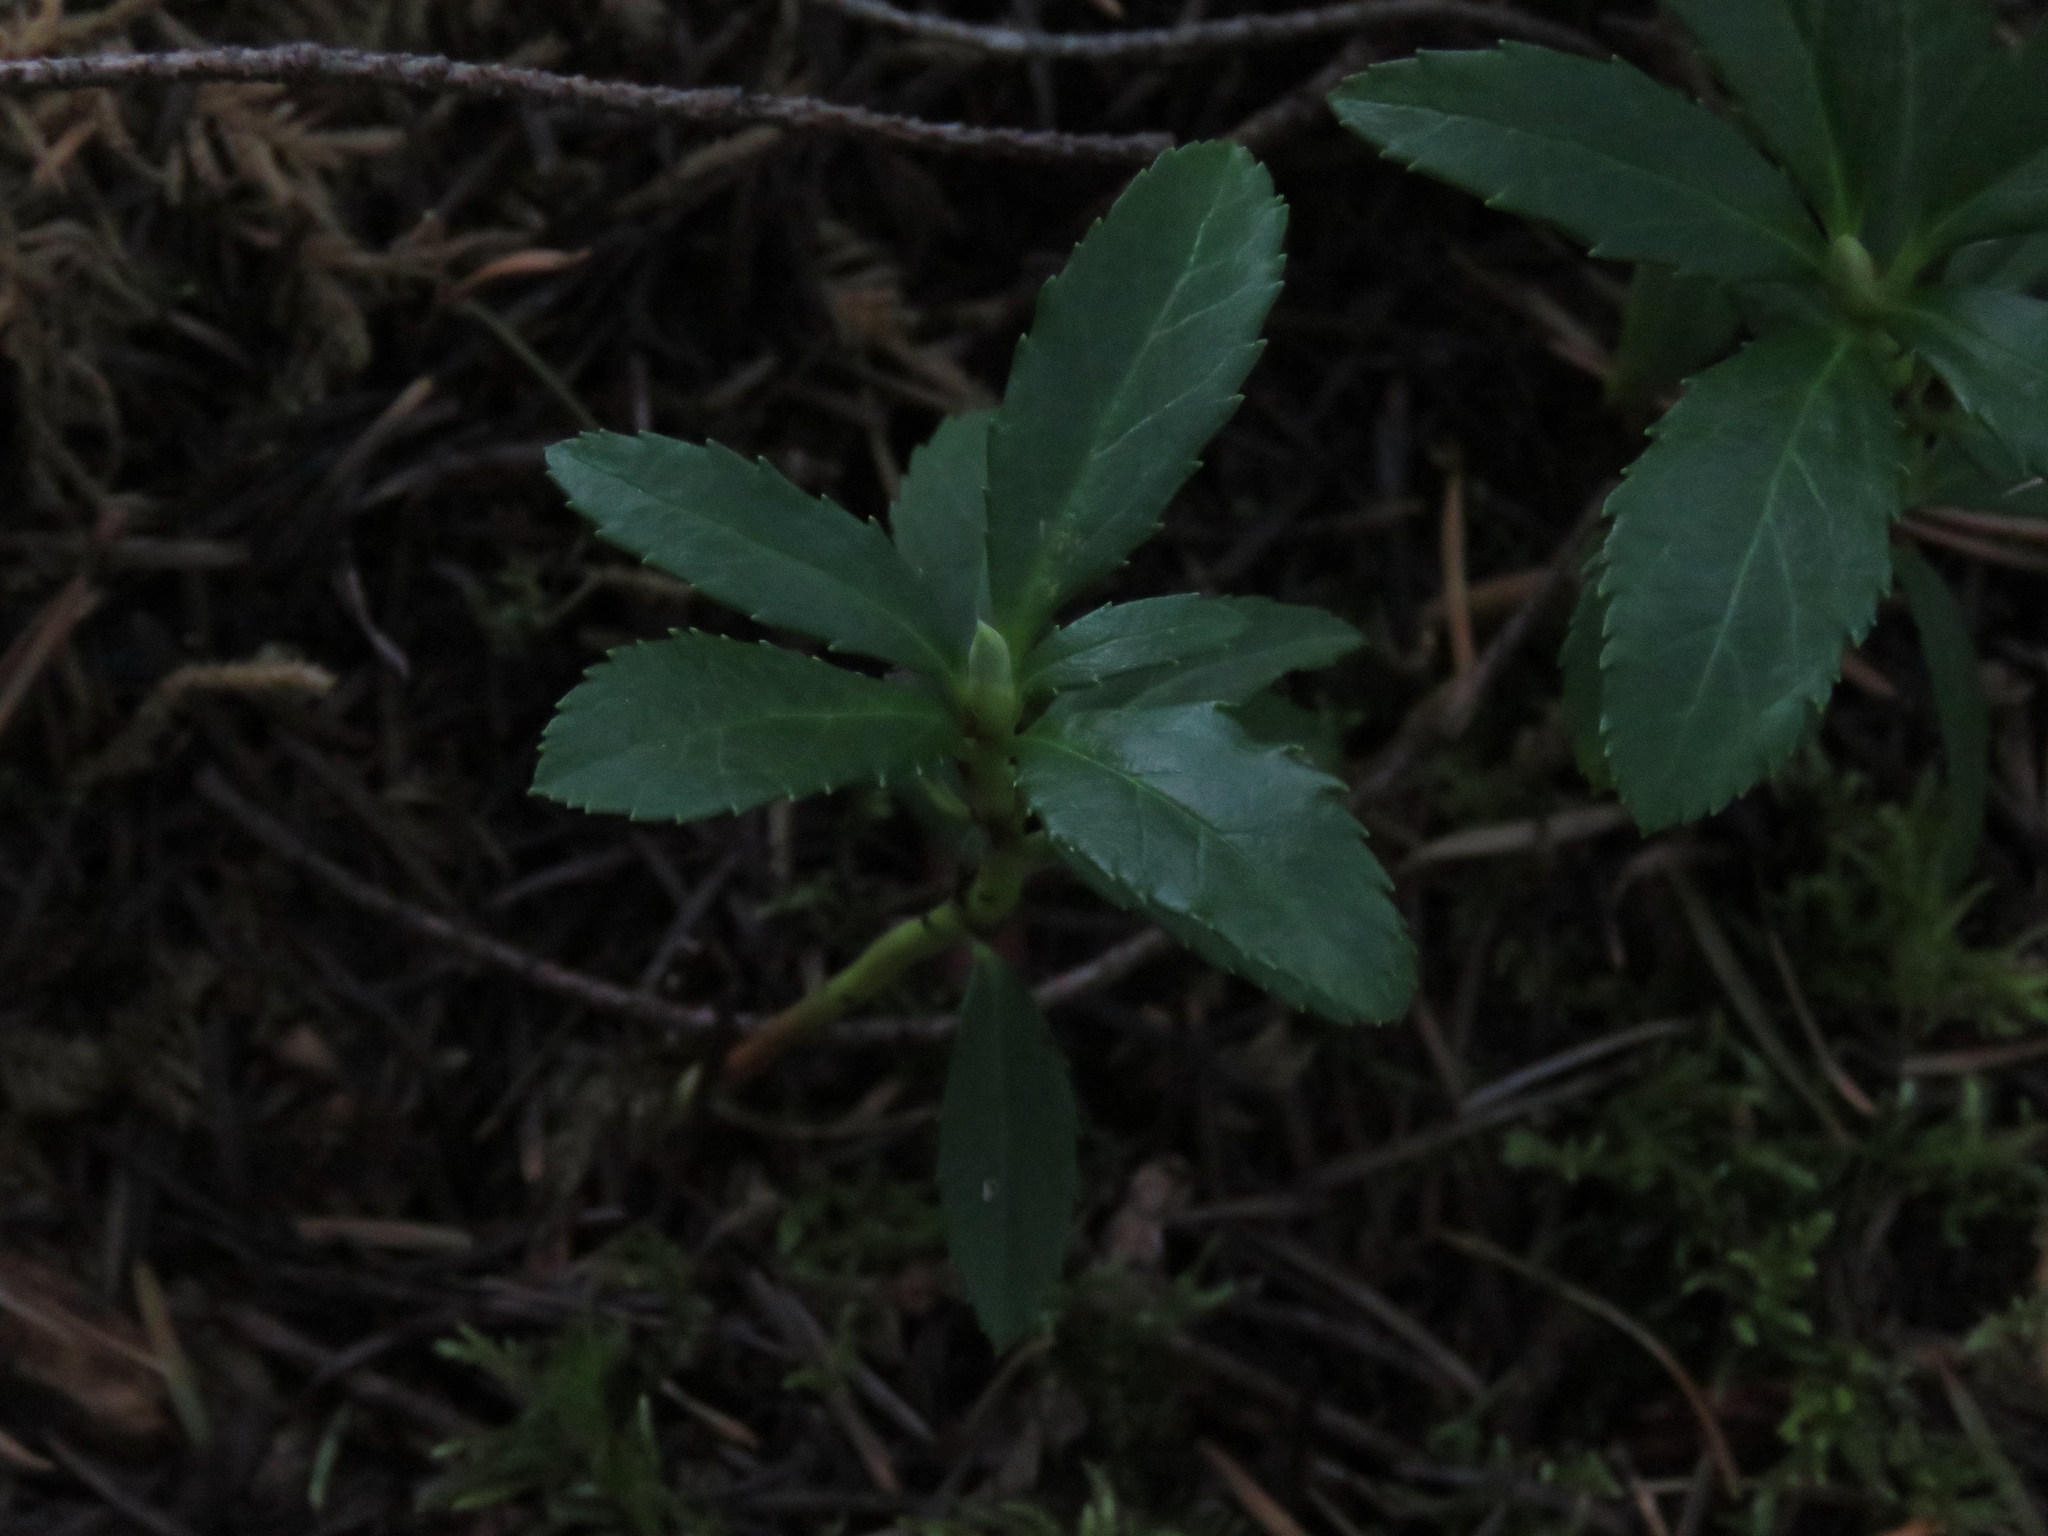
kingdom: Plantae
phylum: Tracheophyta
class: Magnoliopsida
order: Ericales
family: Ericaceae
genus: Chimaphila
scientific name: Chimaphila umbellata
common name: Pipsissewa
